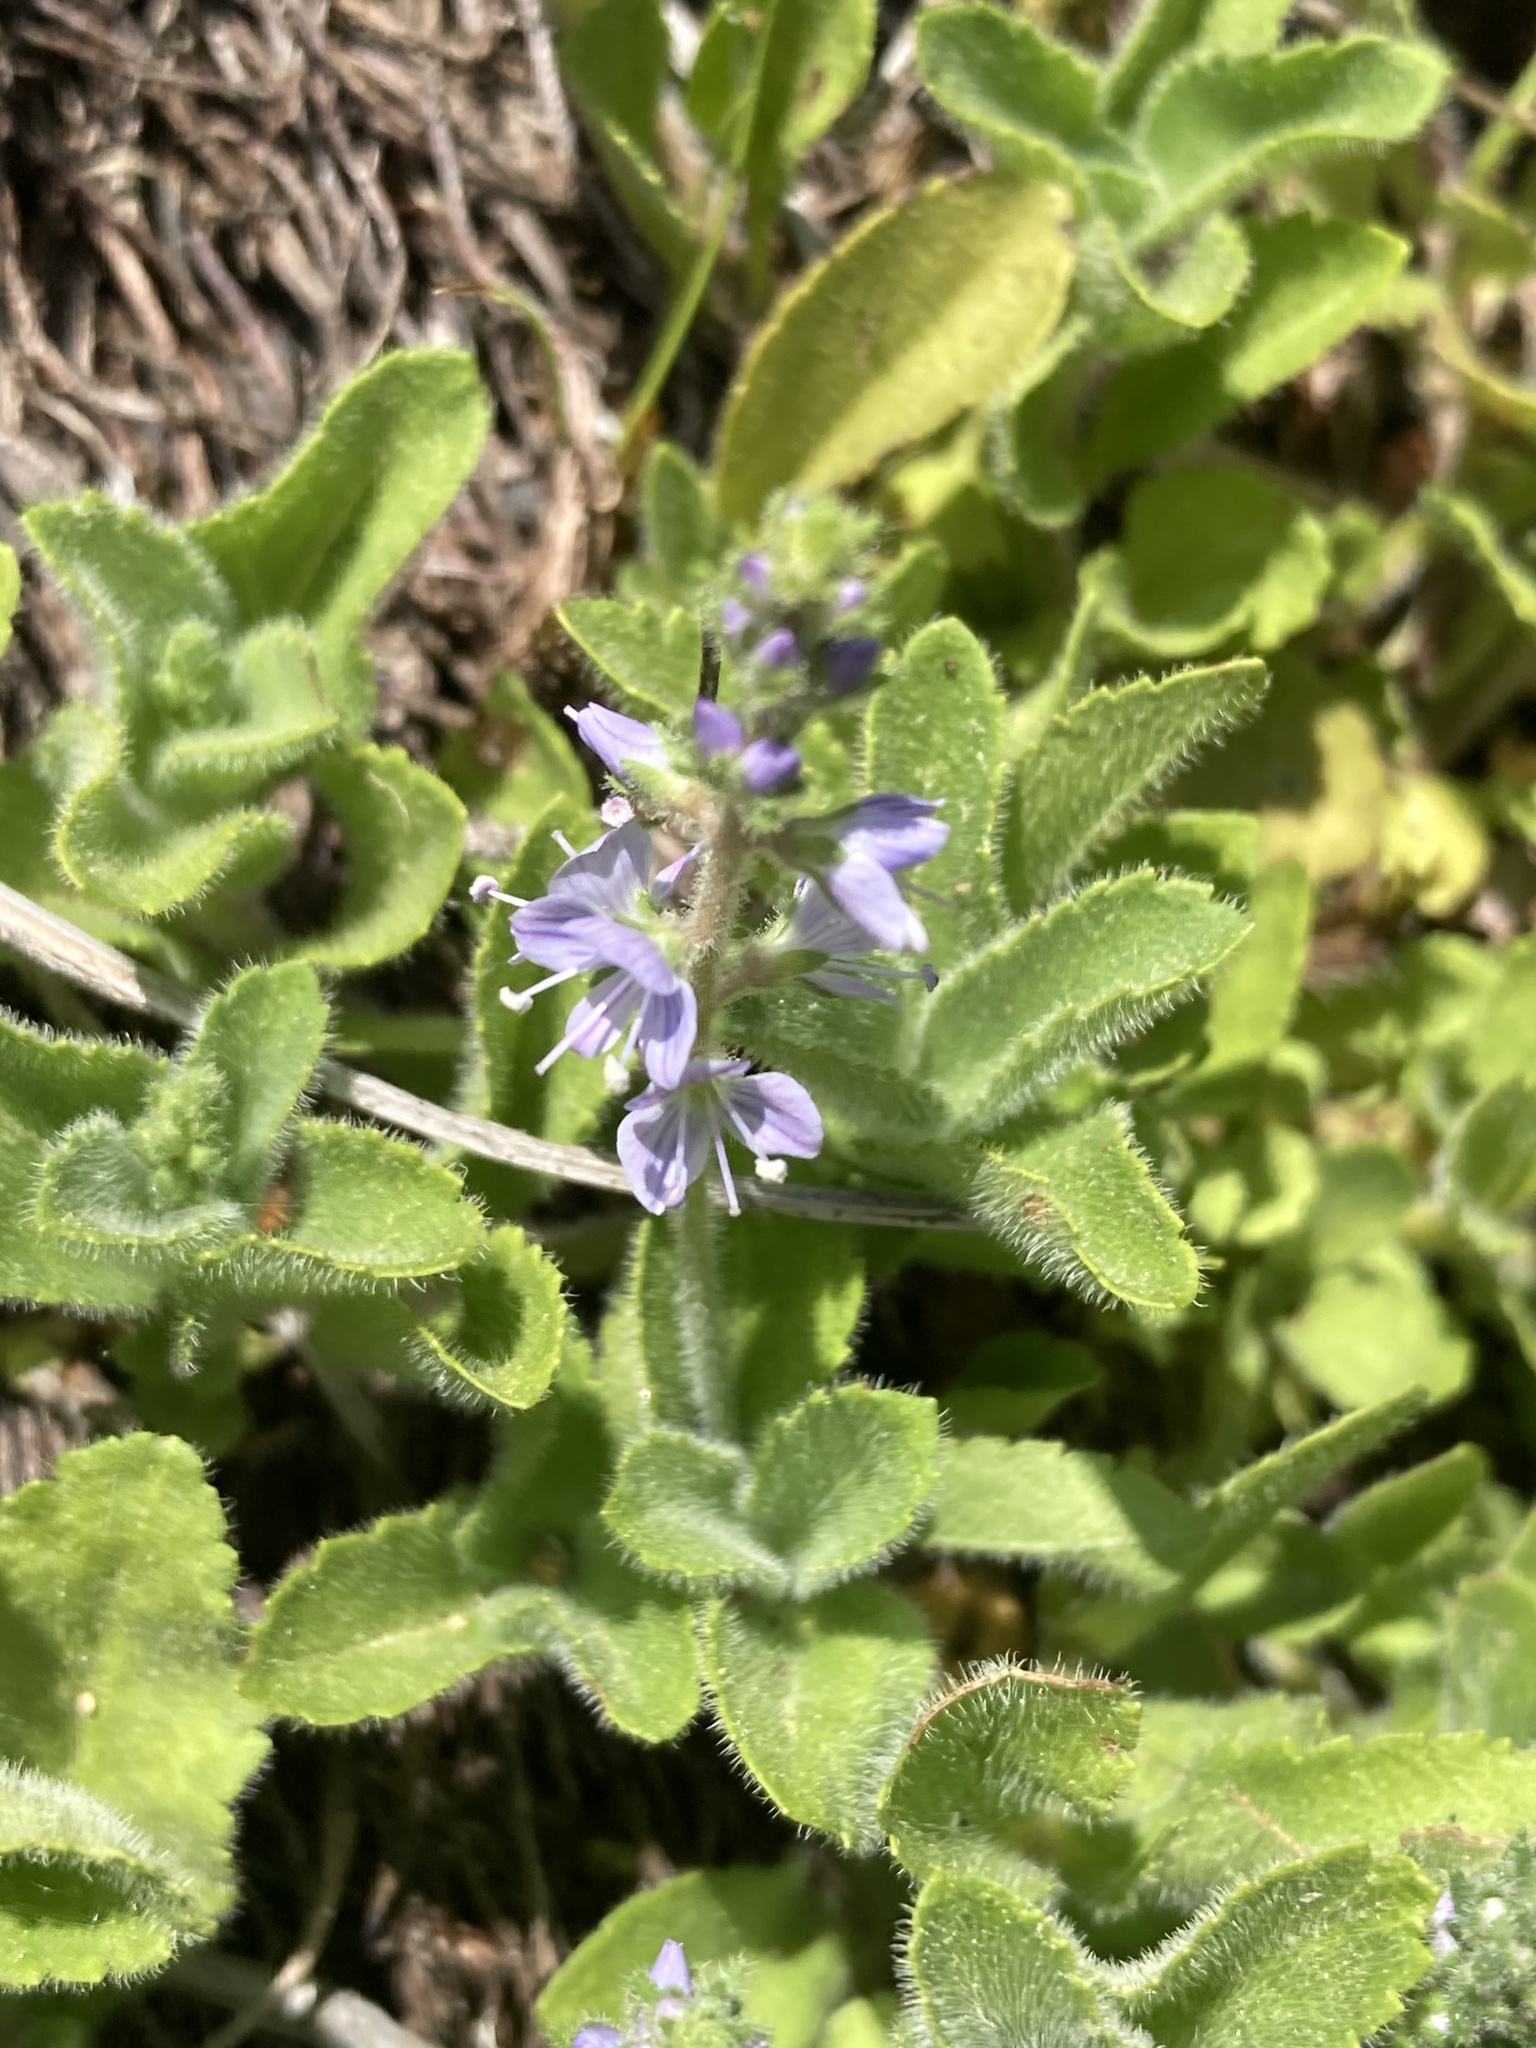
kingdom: Plantae
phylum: Tracheophyta
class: Magnoliopsida
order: Lamiales
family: Plantaginaceae
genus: Veronica
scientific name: Veronica officinalis
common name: Common speedwell
